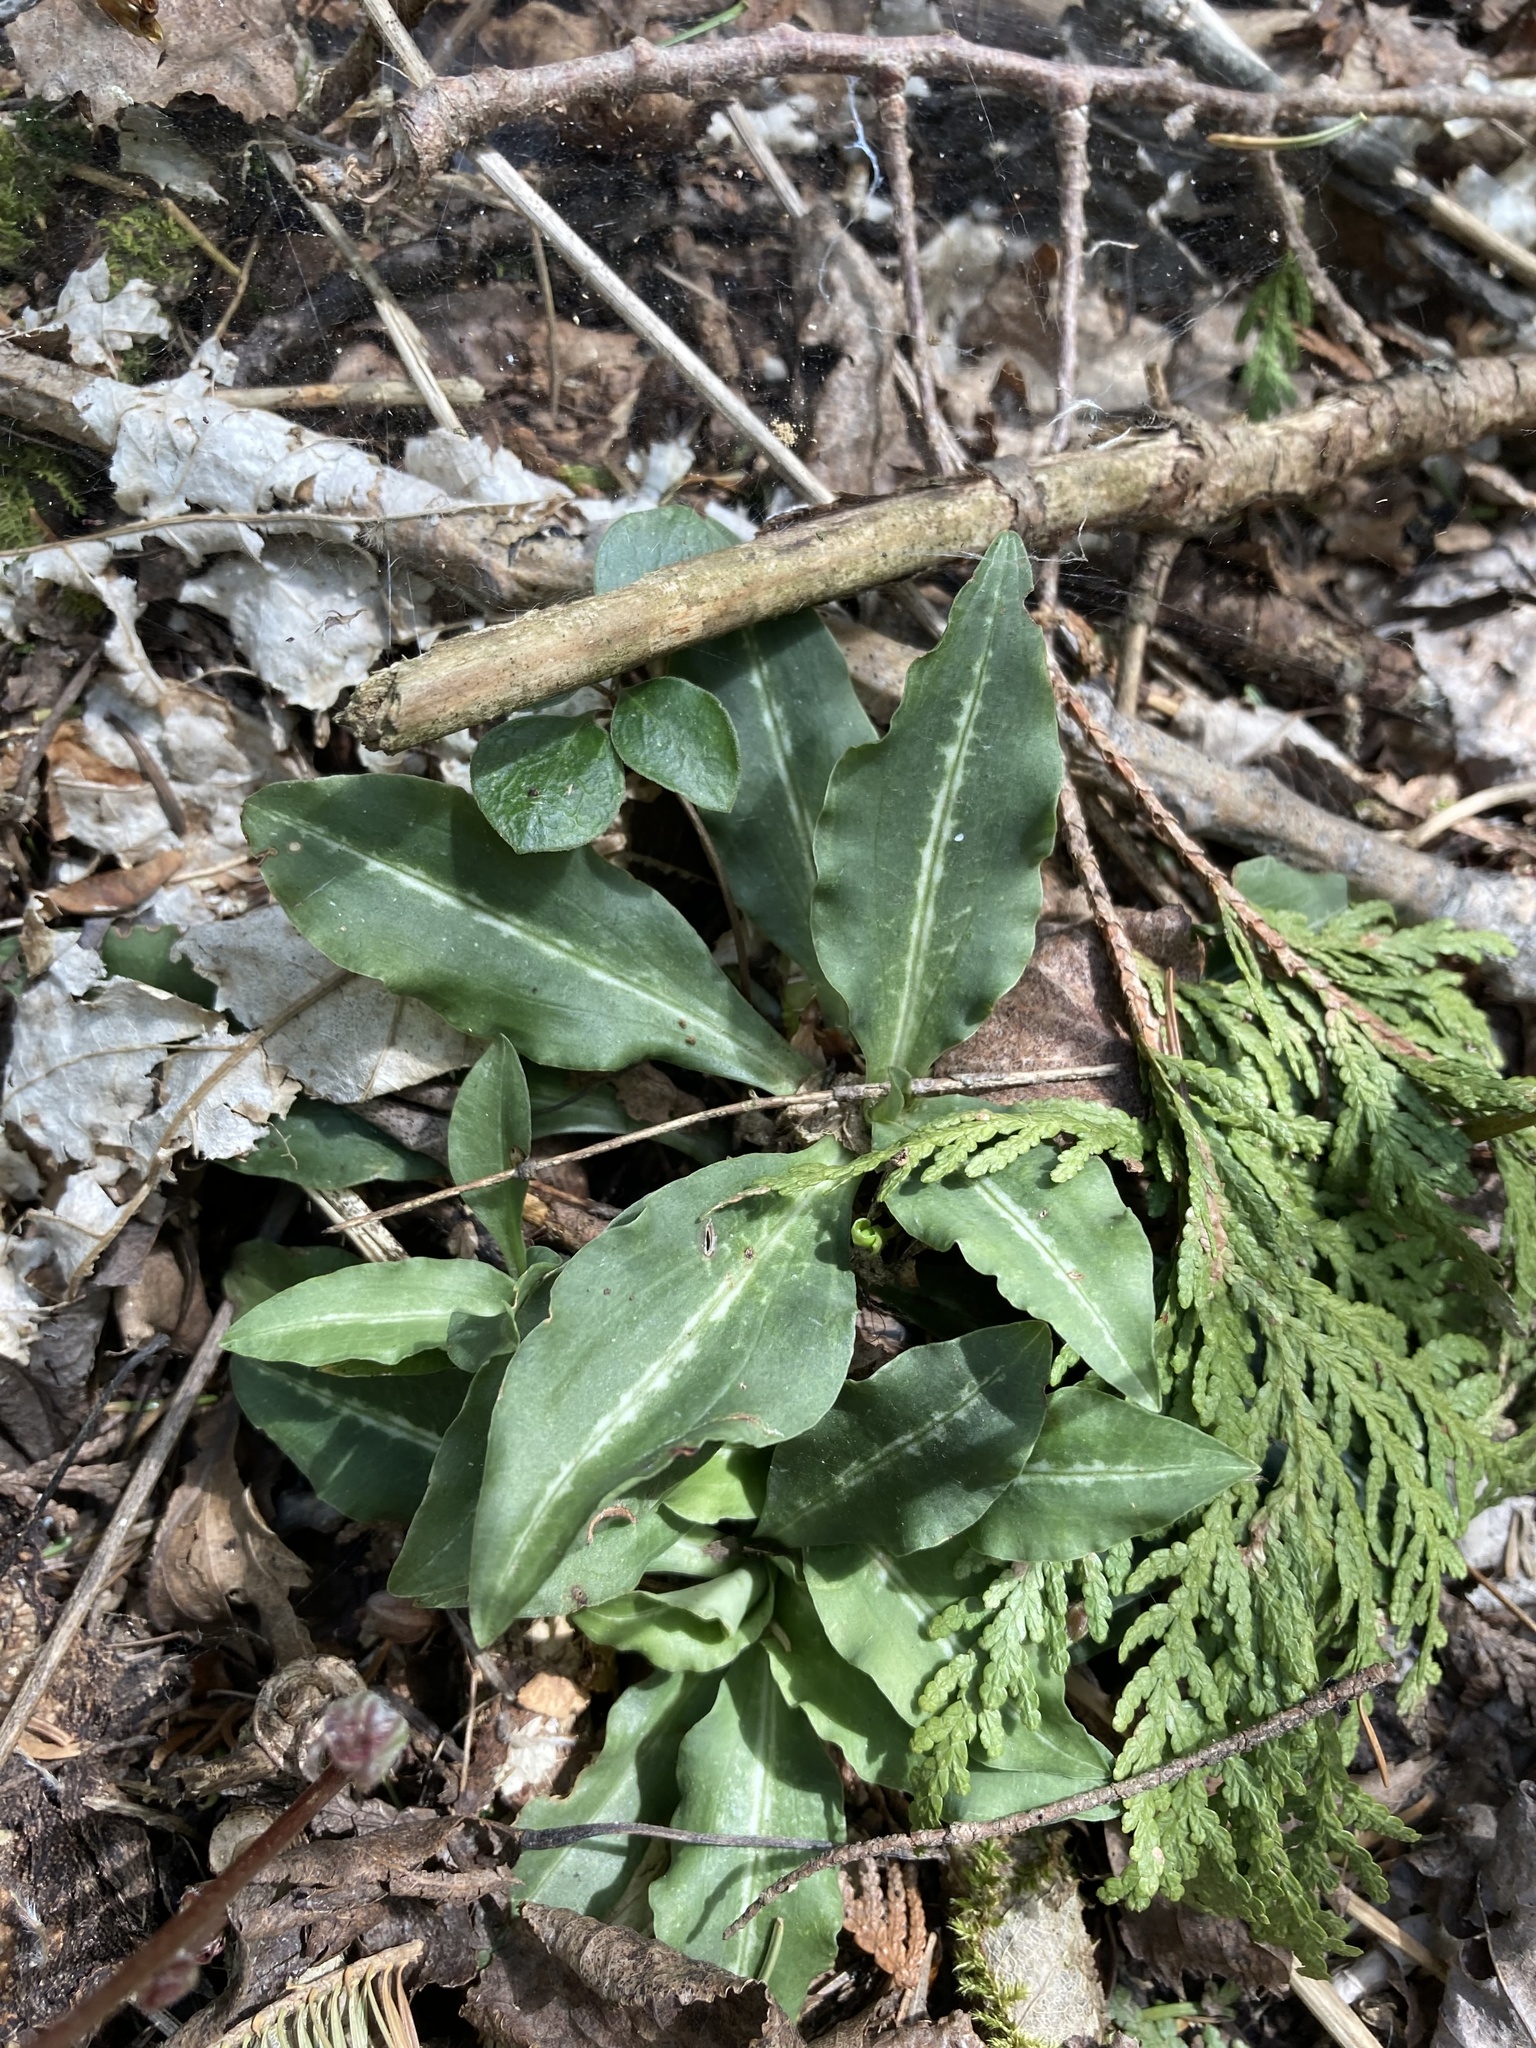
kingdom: Plantae
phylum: Tracheophyta
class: Liliopsida
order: Asparagales
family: Orchidaceae
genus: Goodyera
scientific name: Goodyera oblongifolia
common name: Giant rattlesnake-plantain
